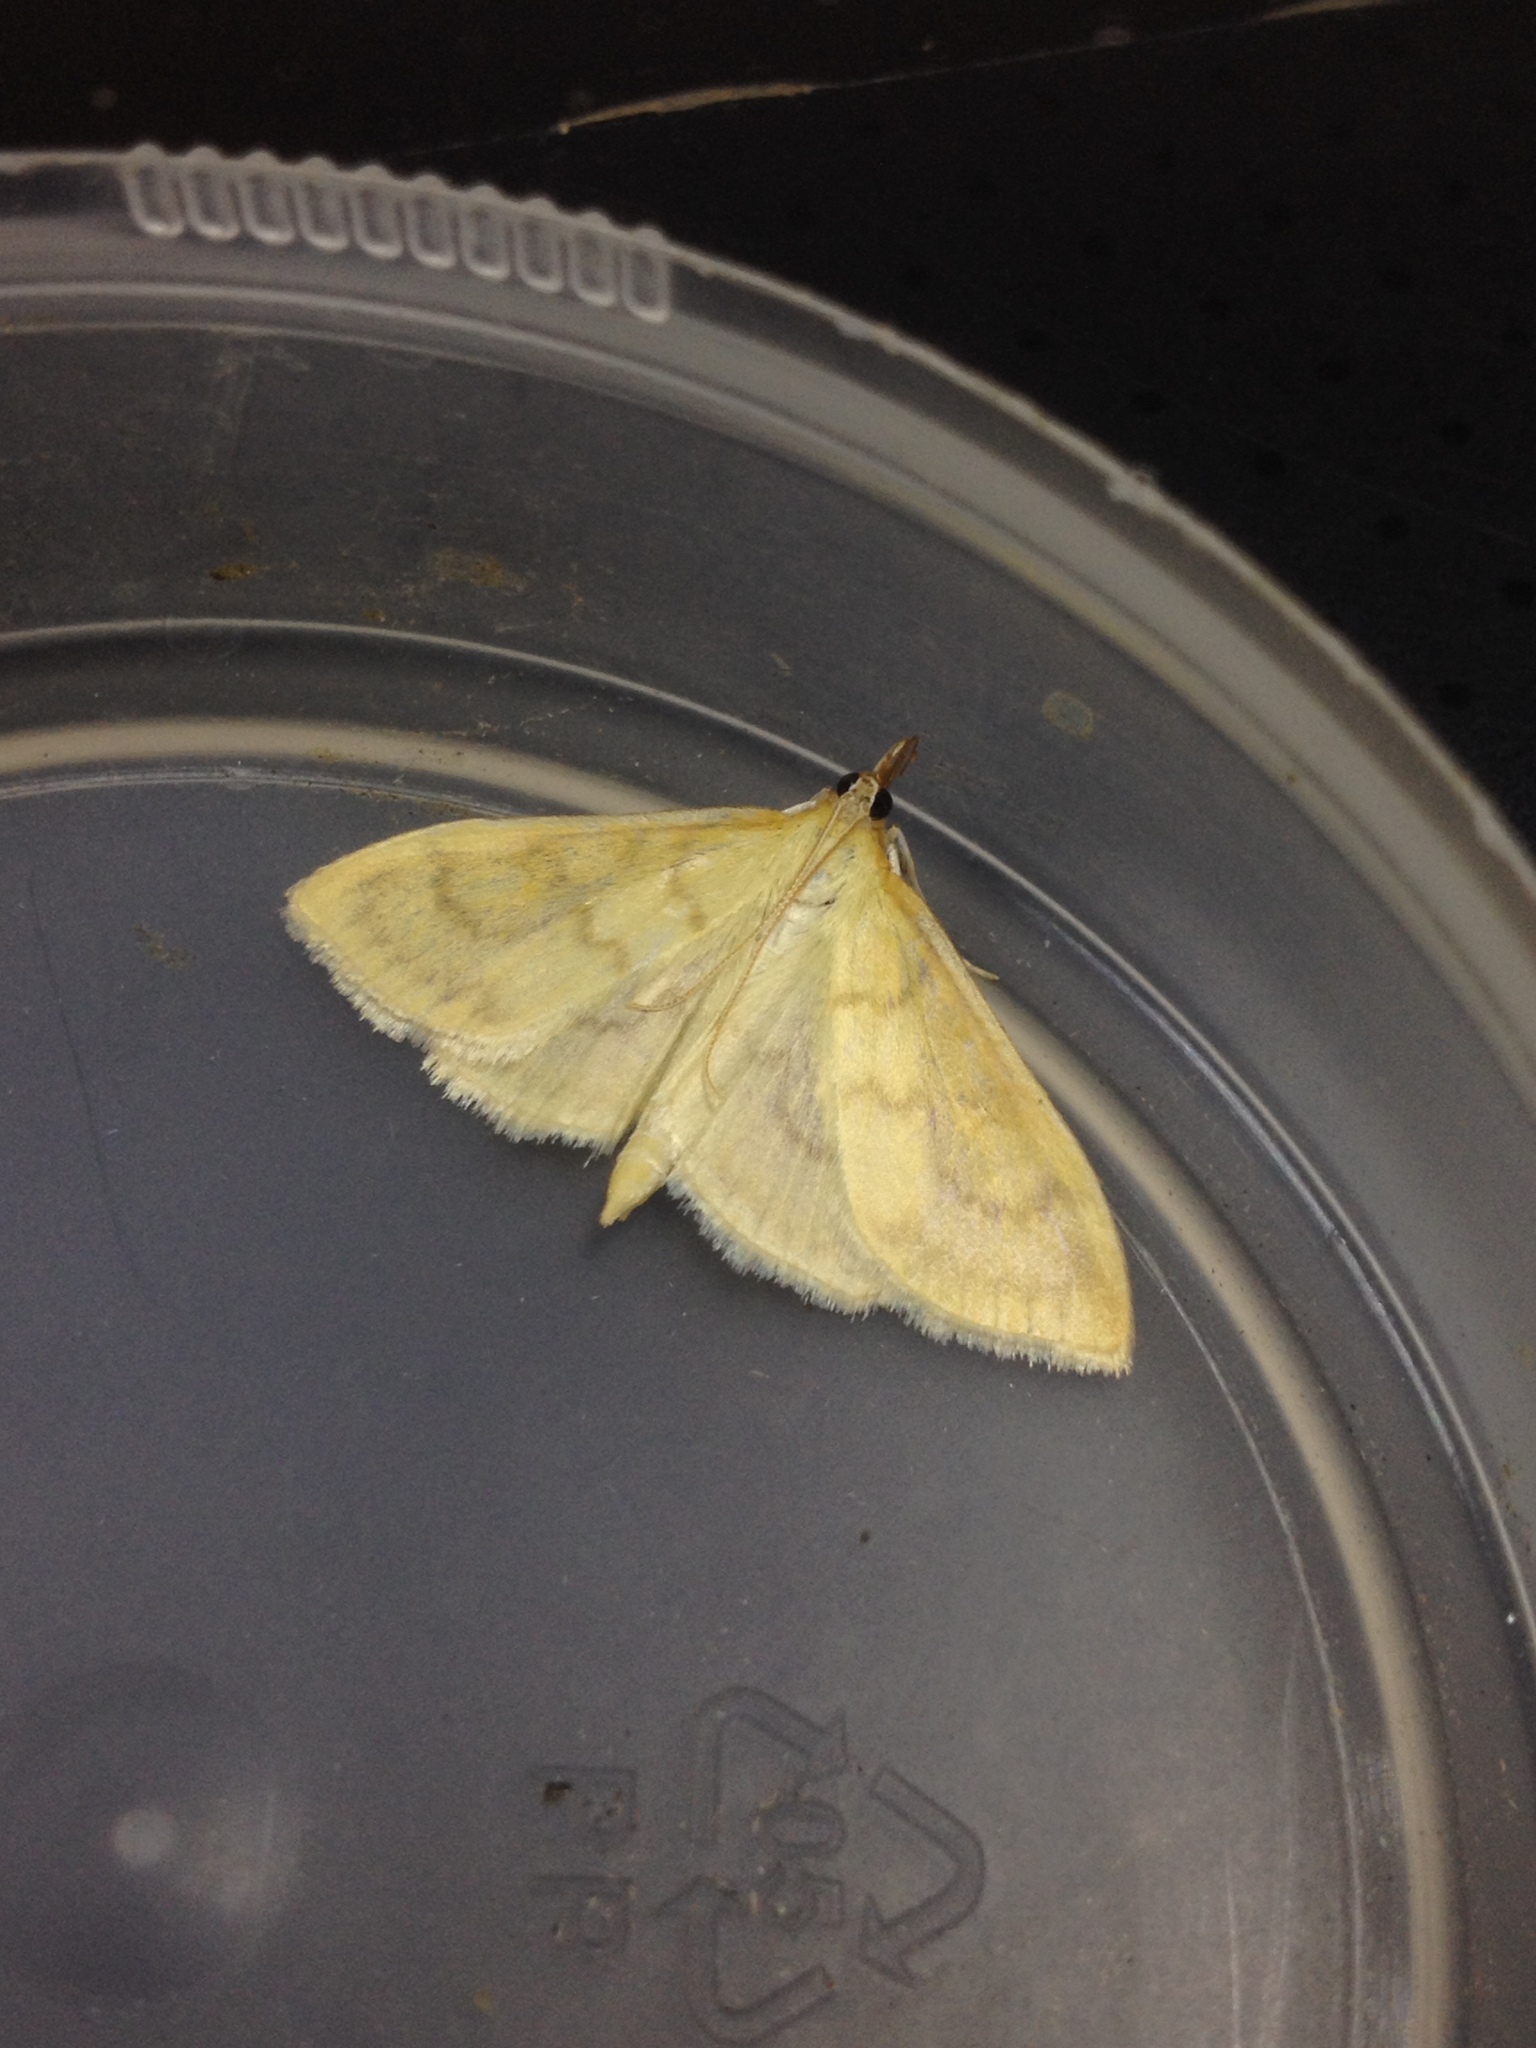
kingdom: Animalia
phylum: Arthropoda
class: Insecta
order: Lepidoptera
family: Crambidae
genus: Paratalanta
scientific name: Paratalanta hyalinalis
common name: Translucent pearl
